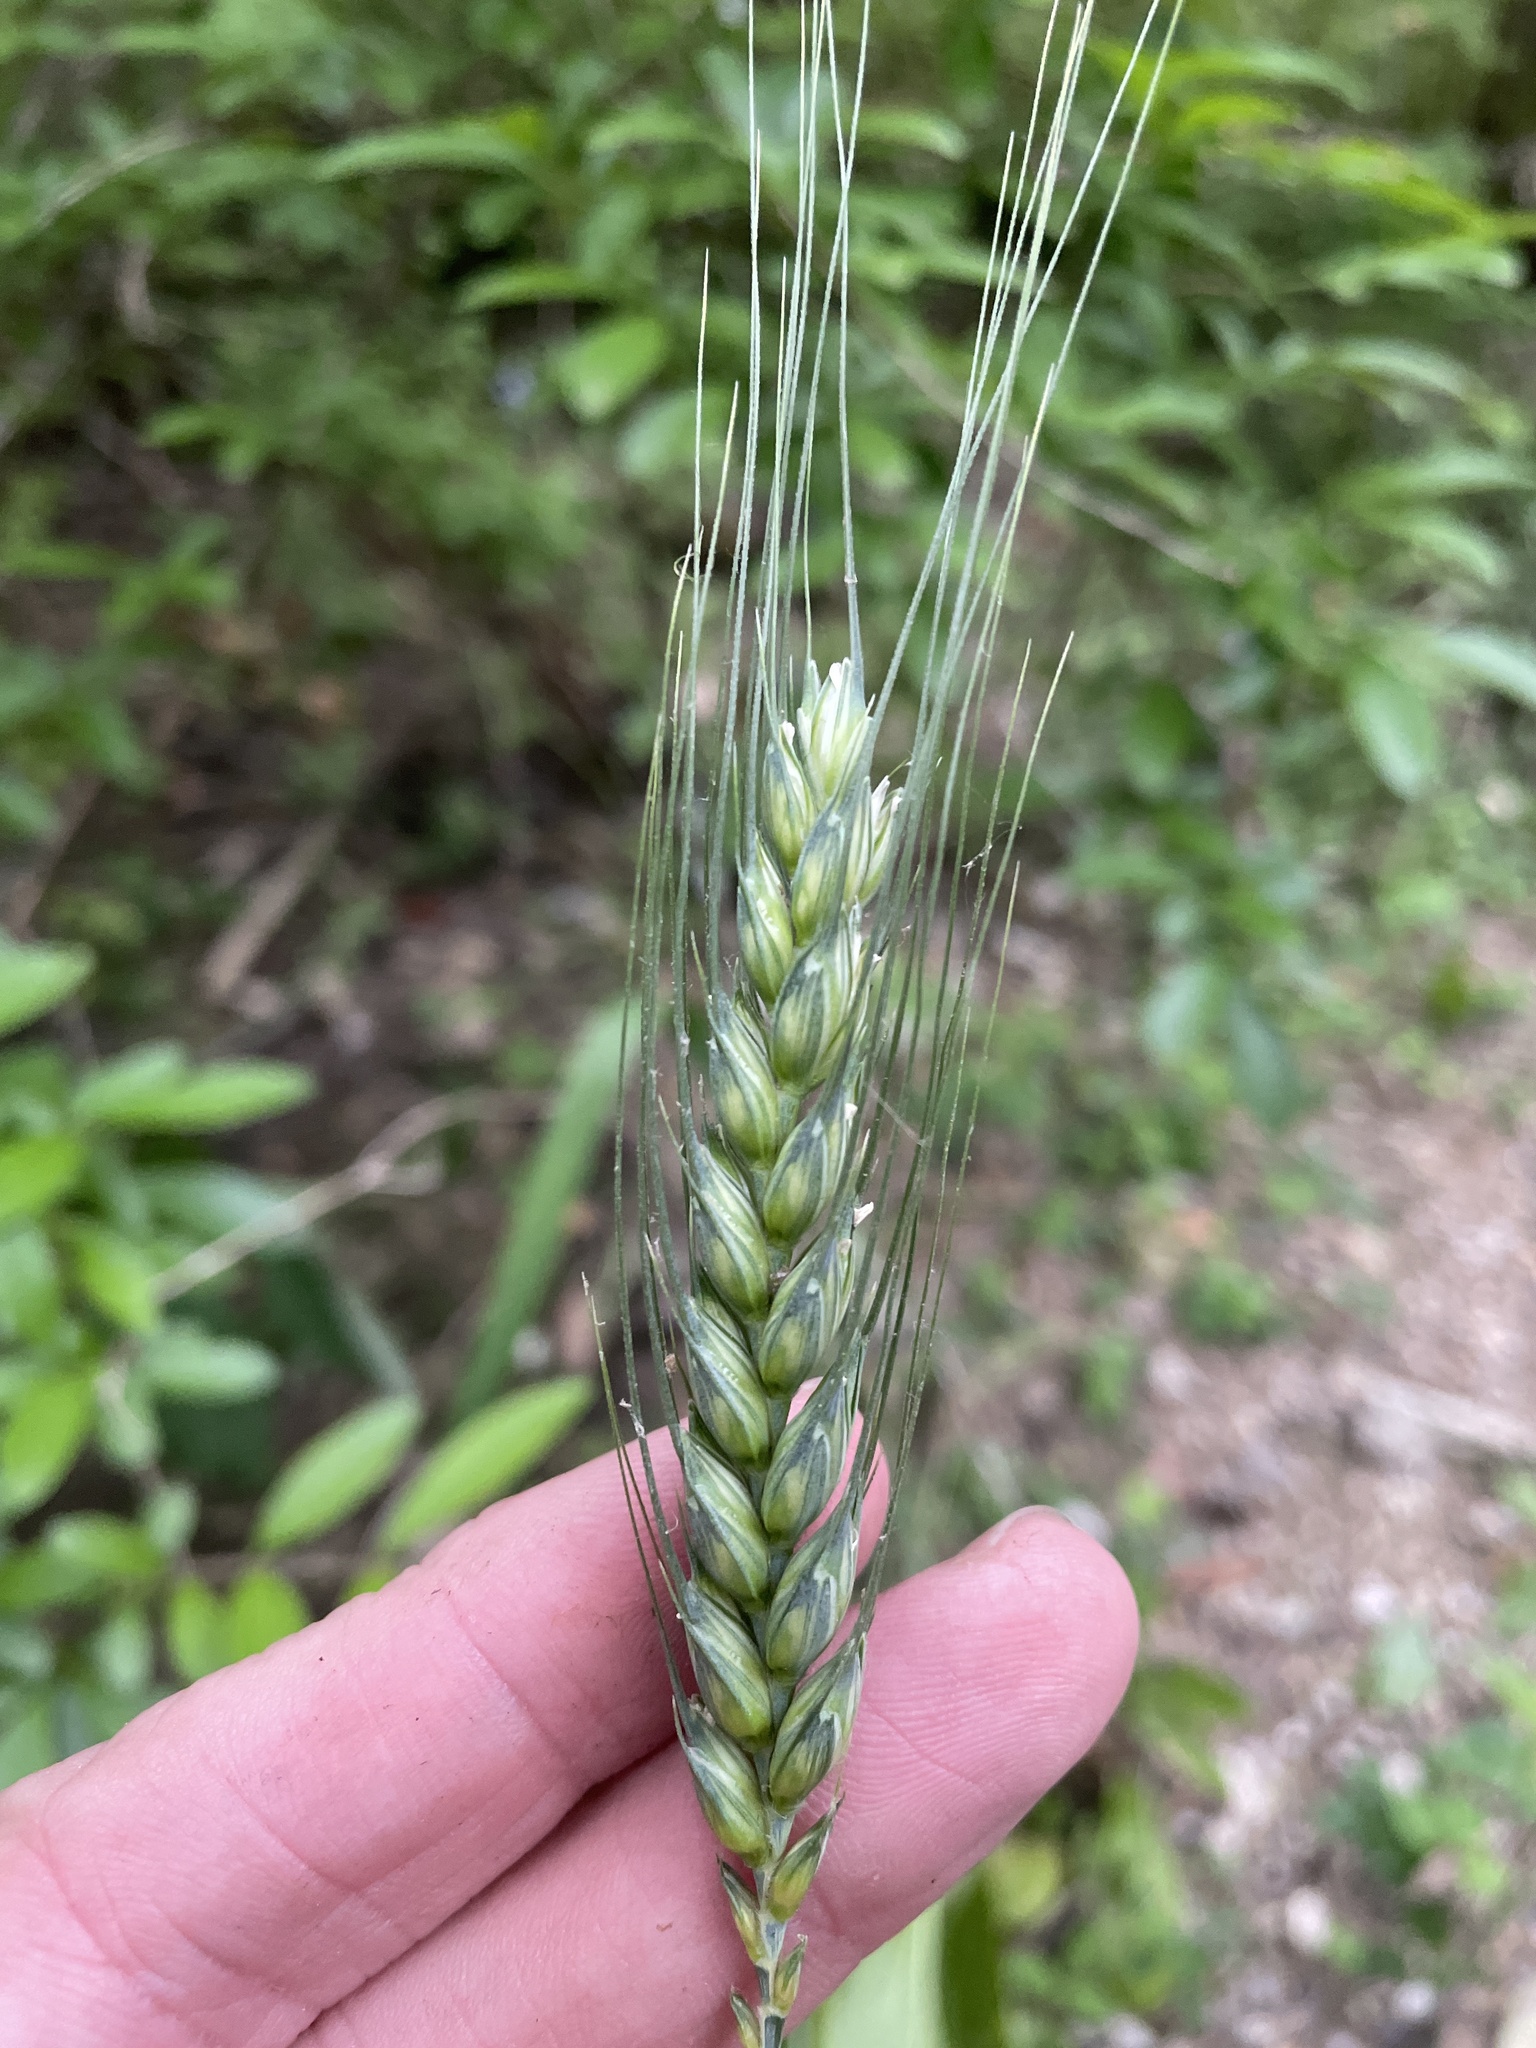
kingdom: Plantae
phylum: Tracheophyta
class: Liliopsida
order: Poales
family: Poaceae
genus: Triticum
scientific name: Triticum aestivum
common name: Common wheat
